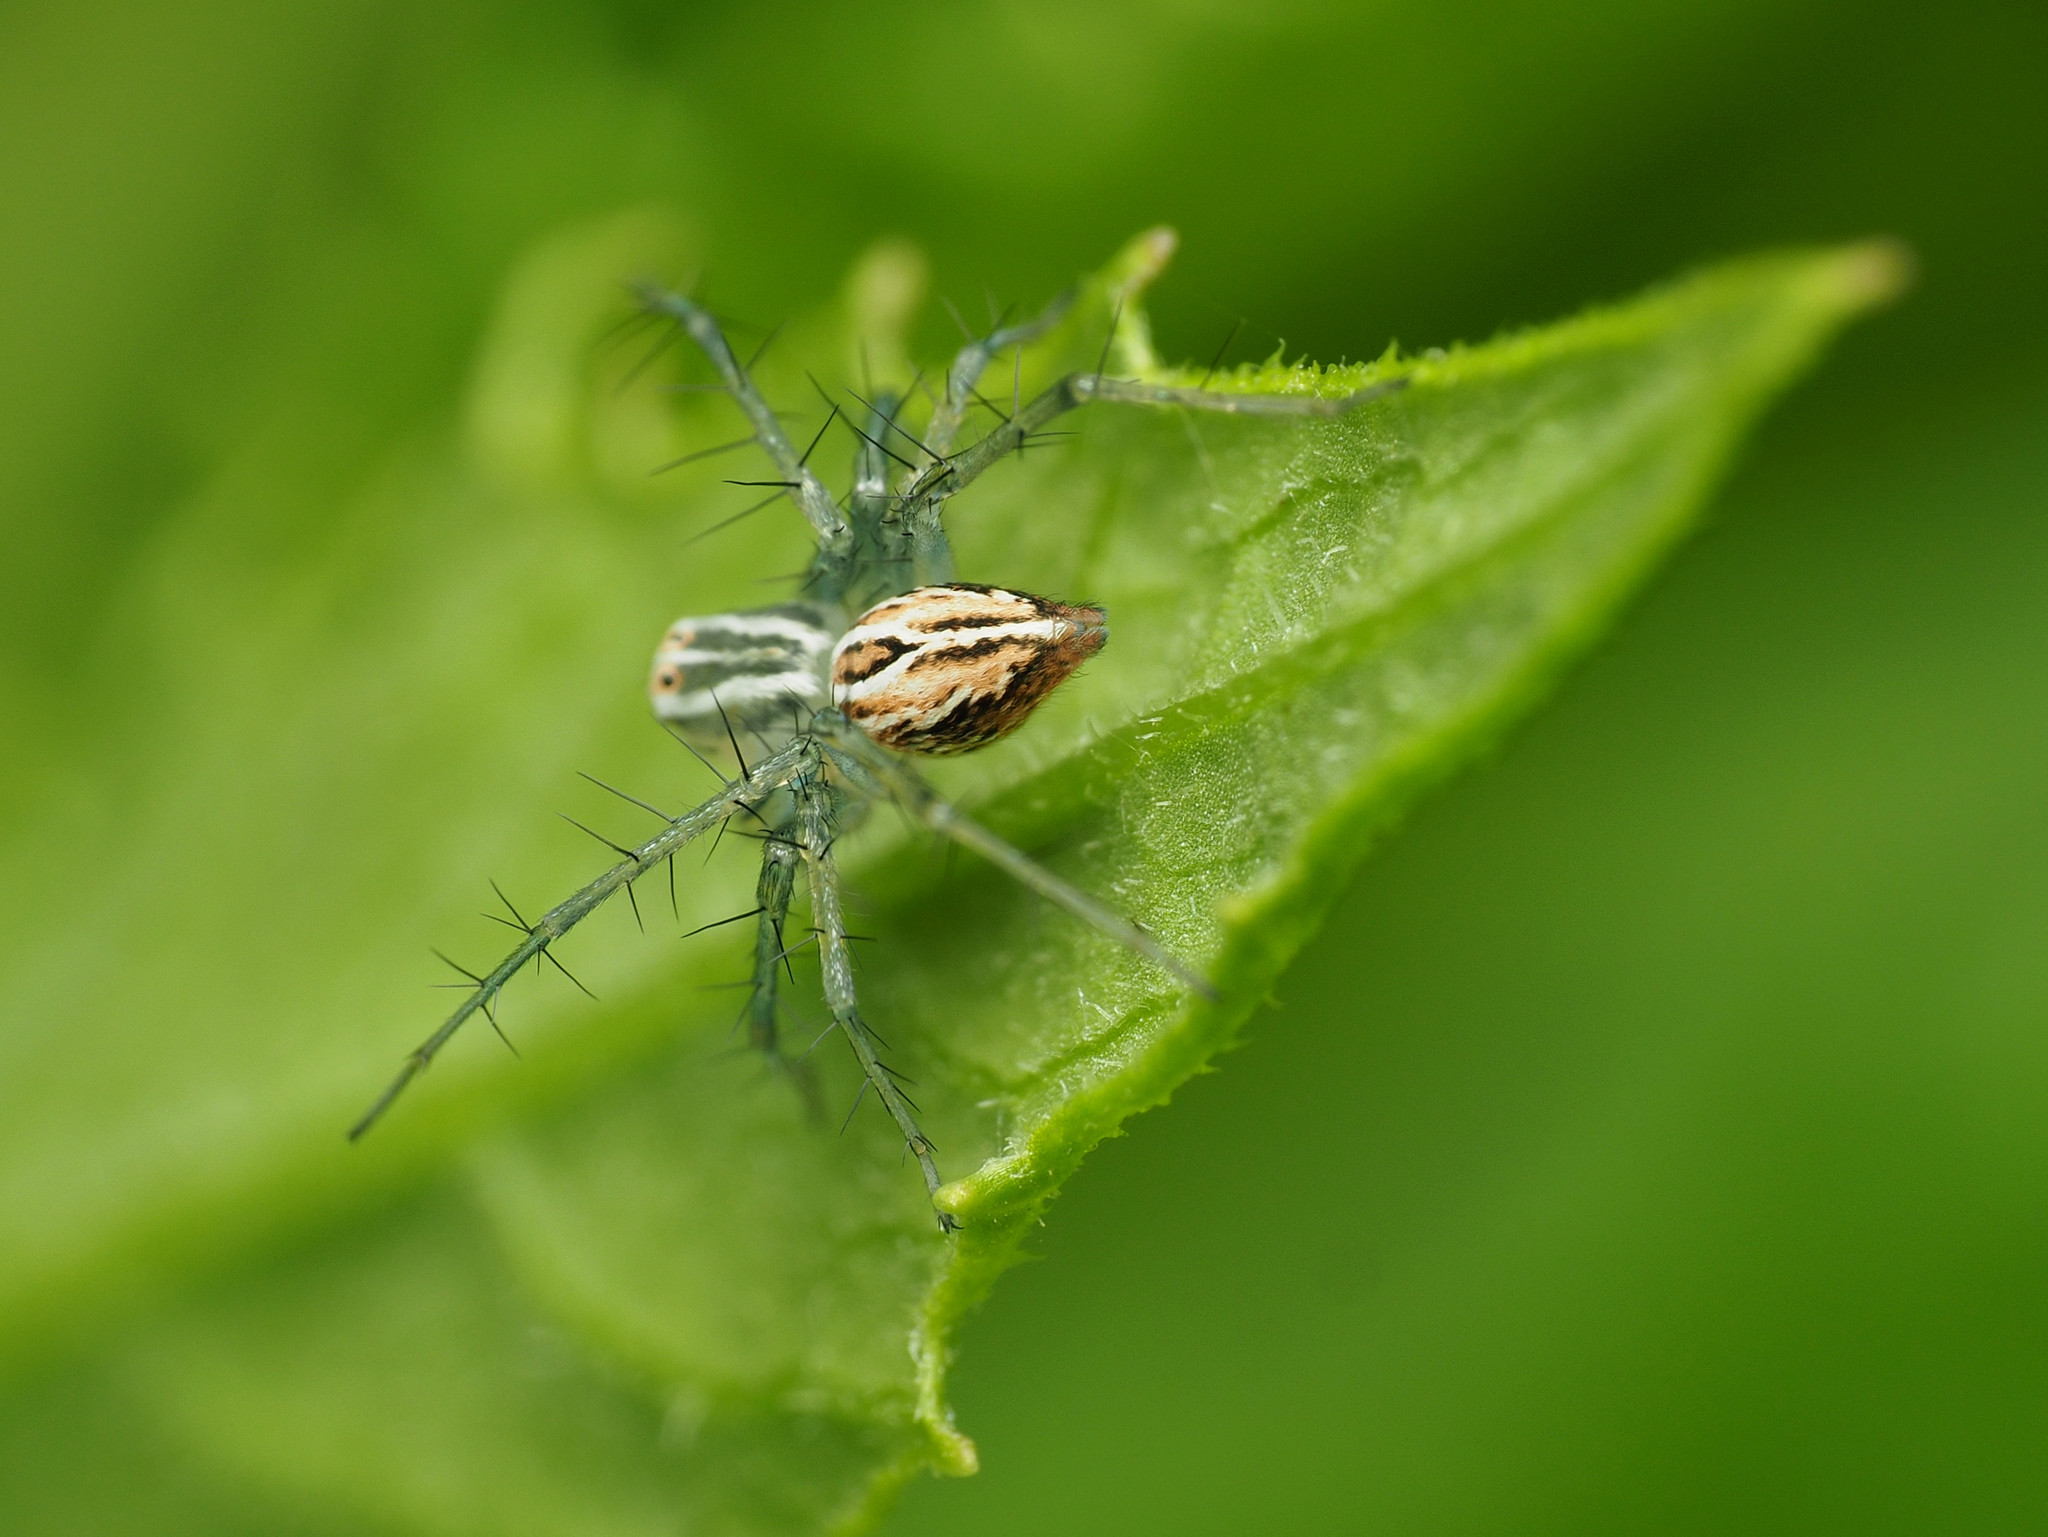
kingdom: Animalia
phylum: Arthropoda
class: Arachnida
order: Araneae
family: Oxyopidae
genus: Oxyopes
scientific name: Oxyopes salticus
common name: Lynx spiders
